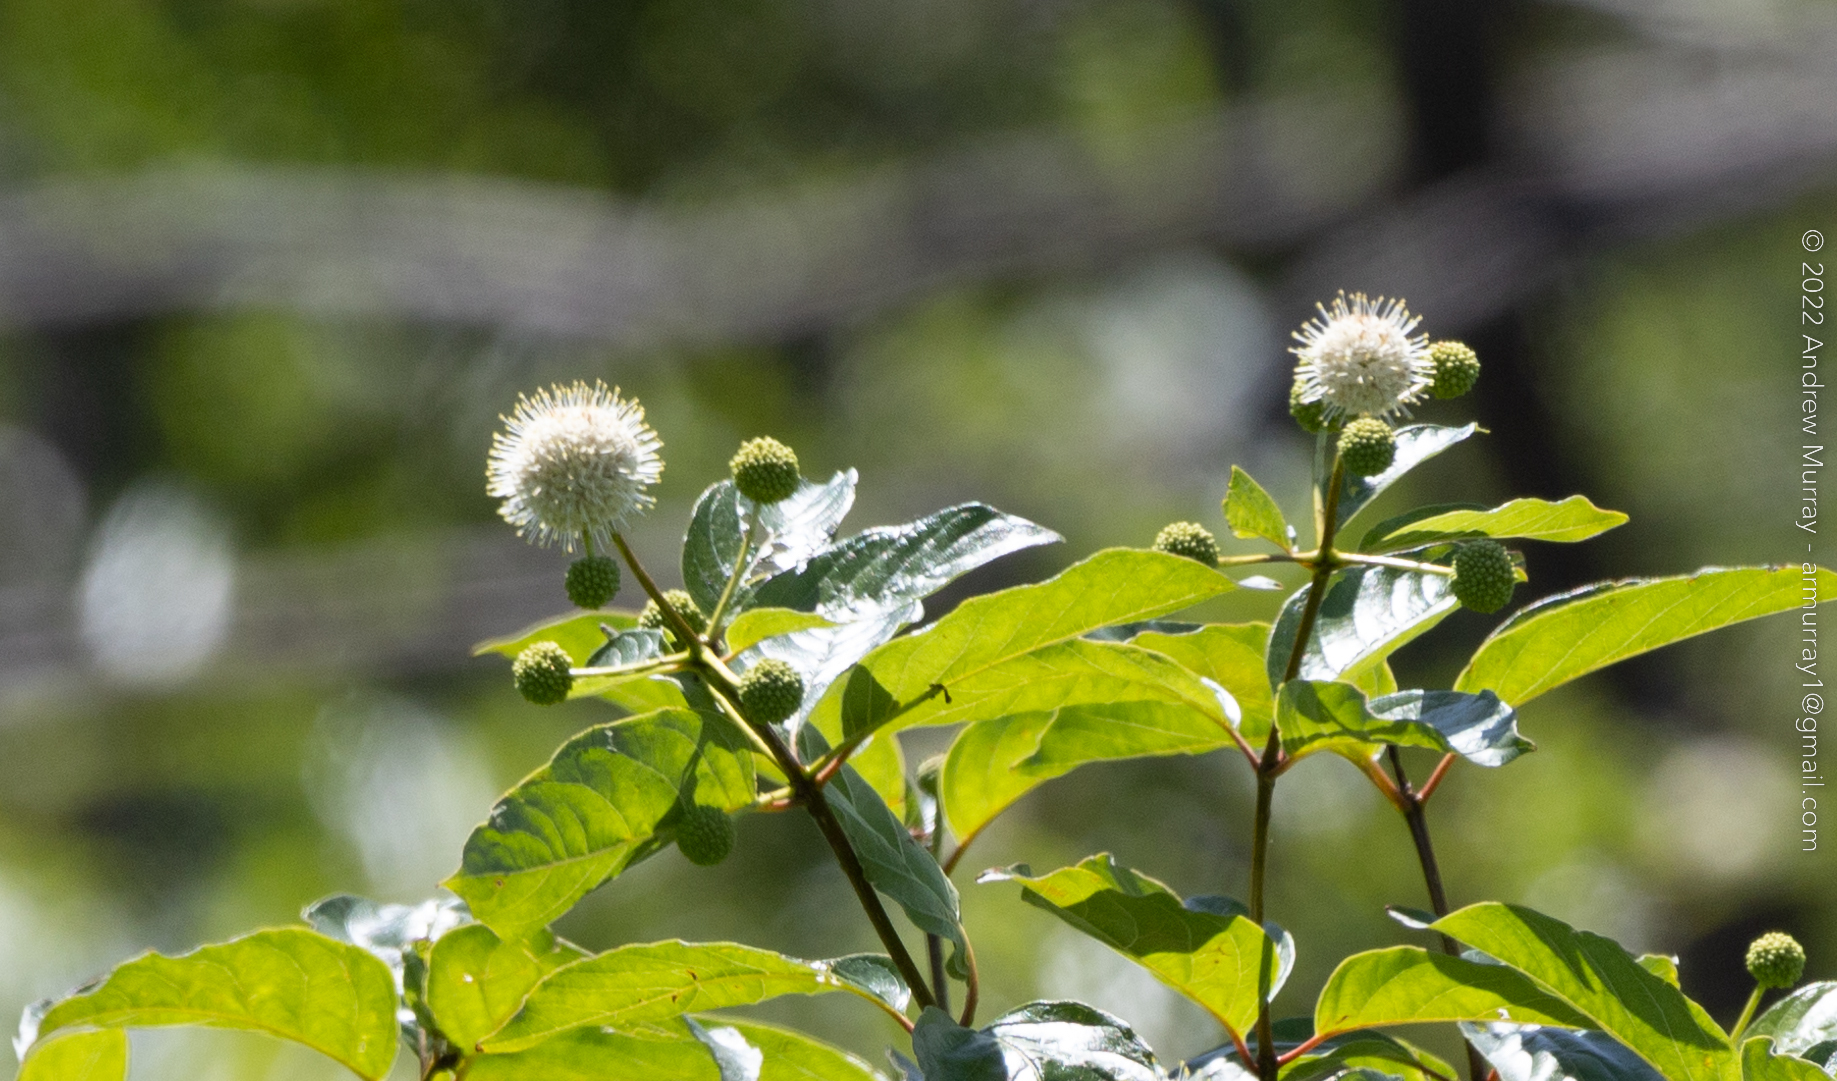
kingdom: Plantae
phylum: Tracheophyta
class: Magnoliopsida
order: Gentianales
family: Rubiaceae
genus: Cephalanthus
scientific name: Cephalanthus occidentalis
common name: Button-willow
